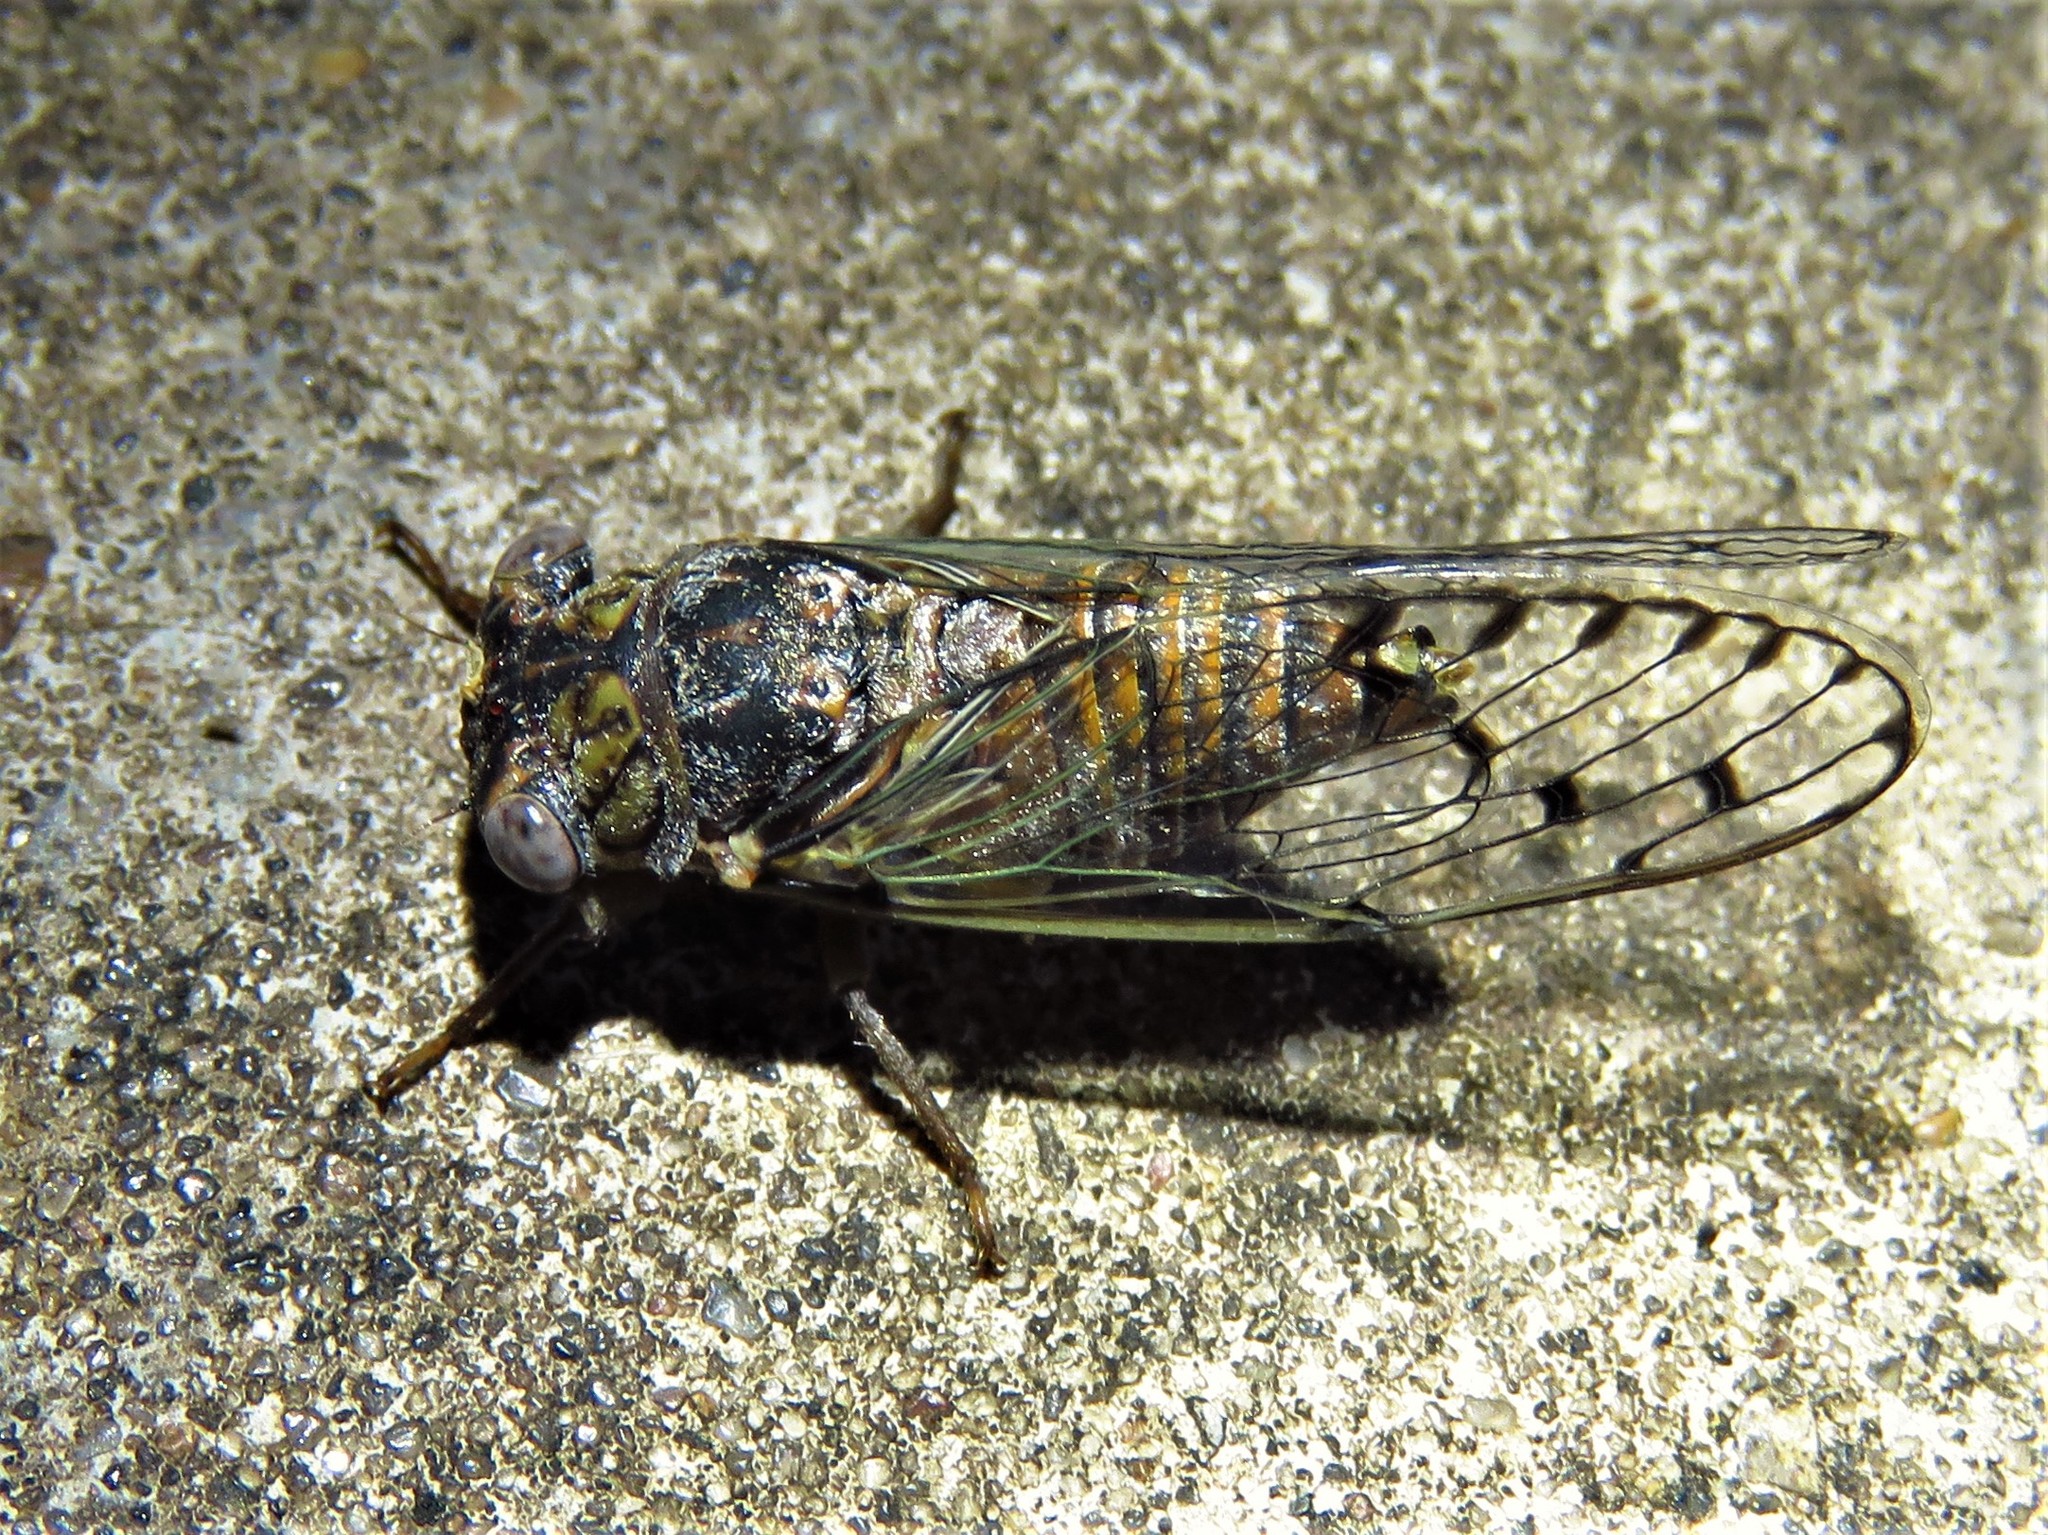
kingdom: Animalia
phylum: Arthropoda
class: Insecta
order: Hemiptera
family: Cicadidae
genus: Pacarina
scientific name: Pacarina puella
